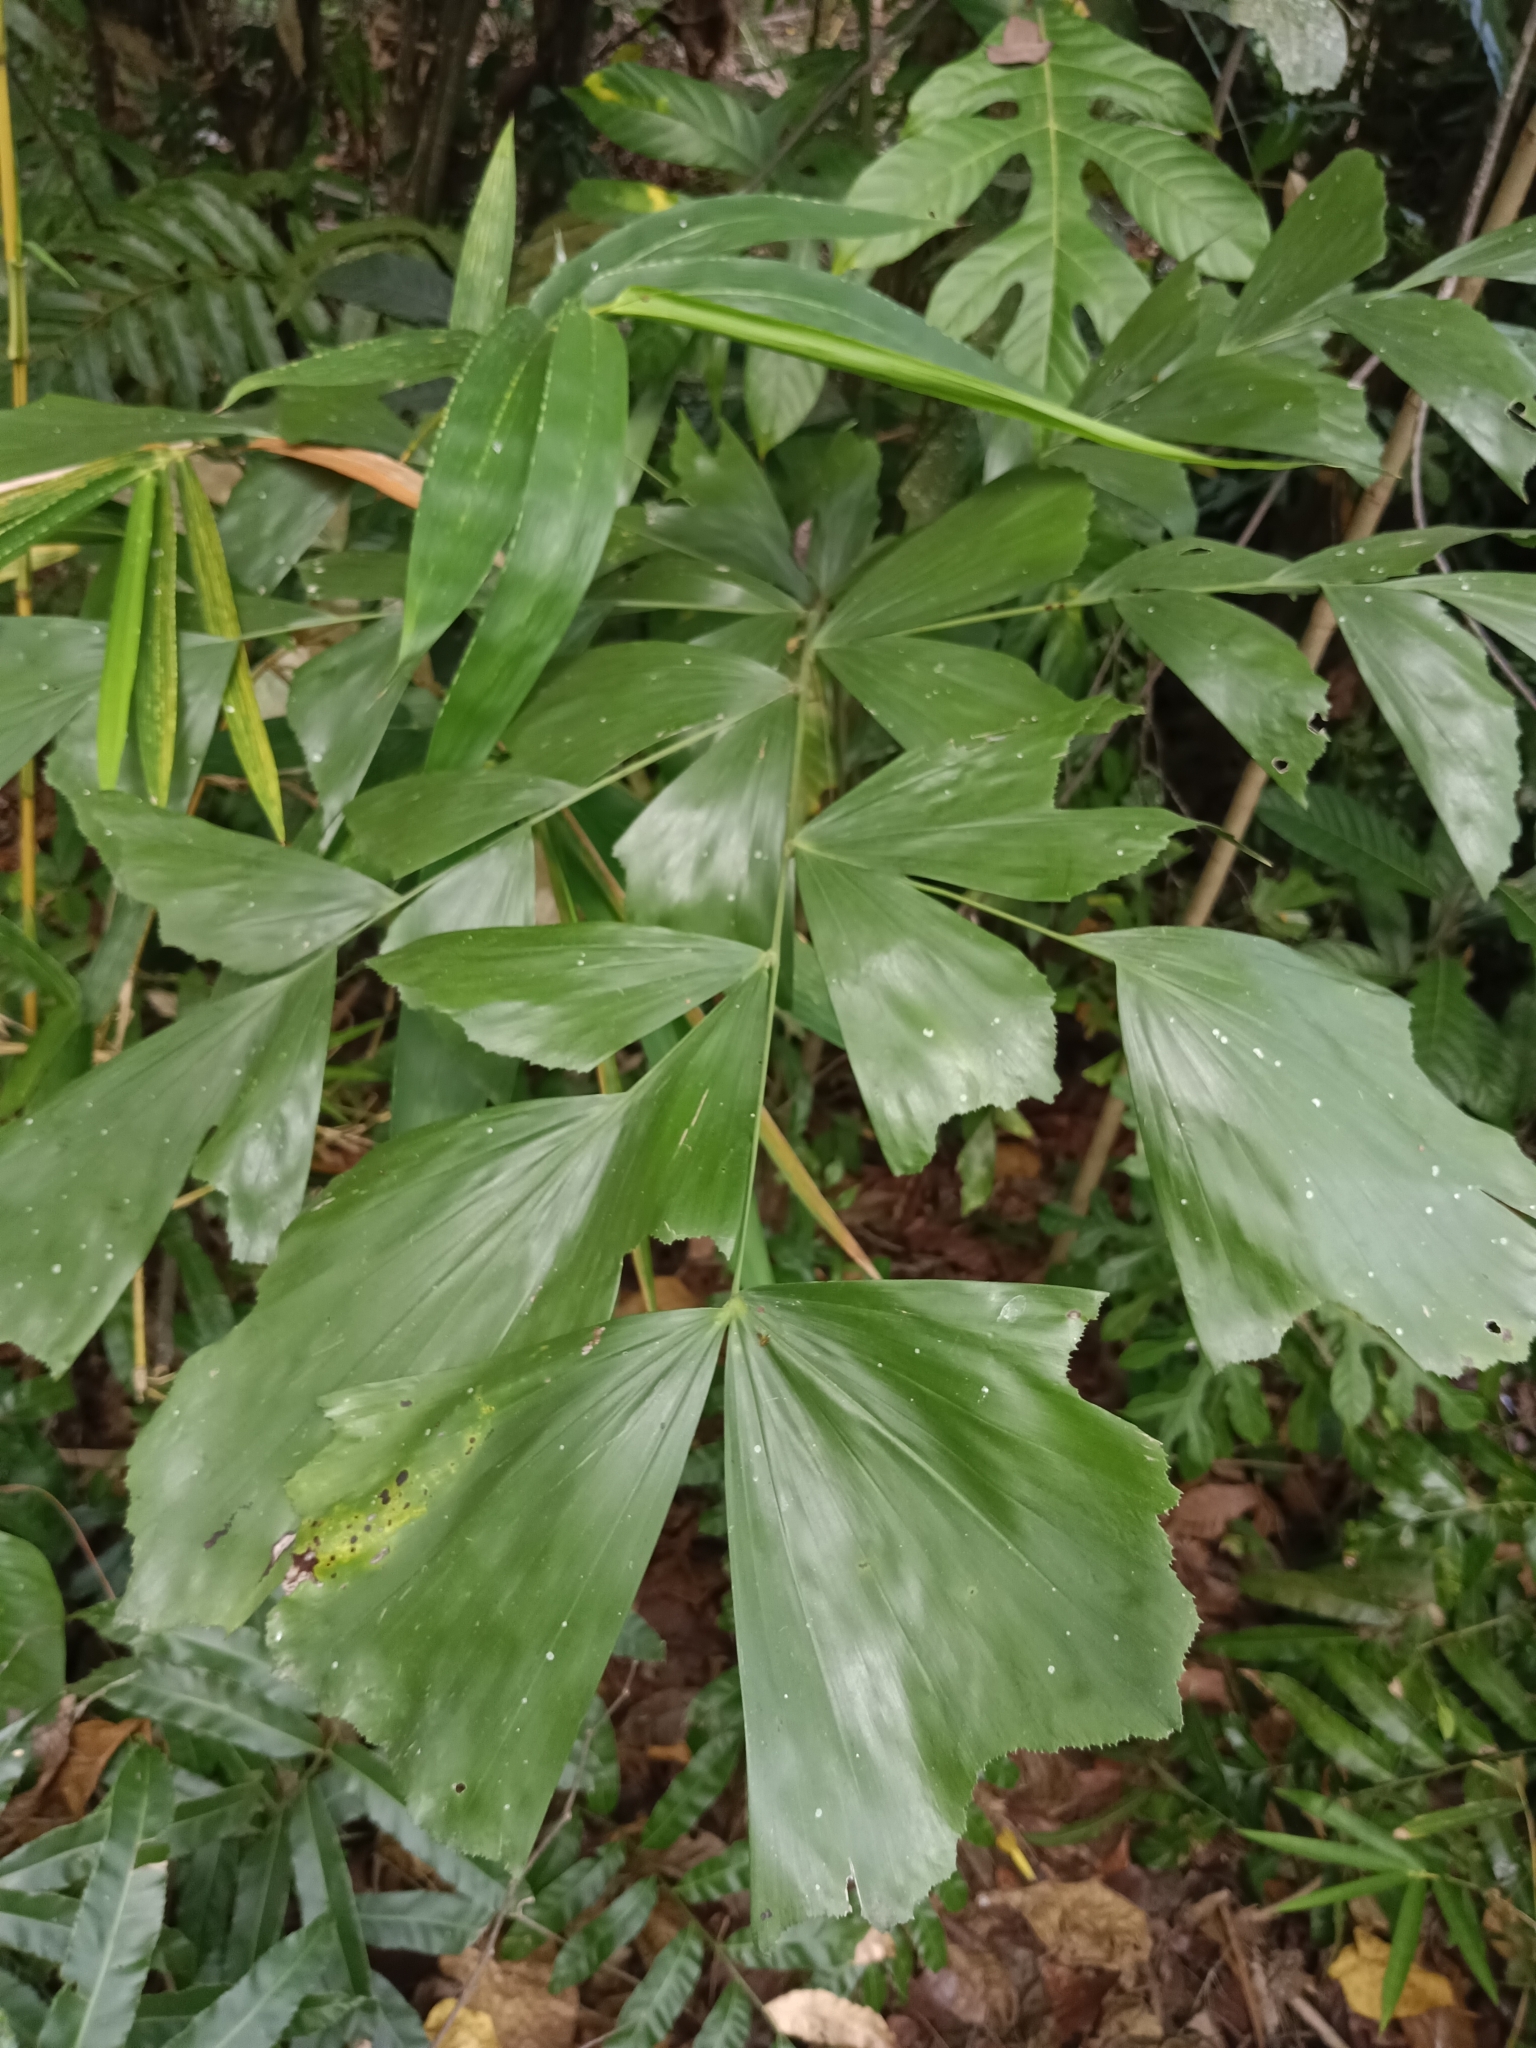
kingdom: Plantae
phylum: Tracheophyta
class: Liliopsida
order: Arecales
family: Arecaceae
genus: Caryota
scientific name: Caryota urens
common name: Jaggery palm
